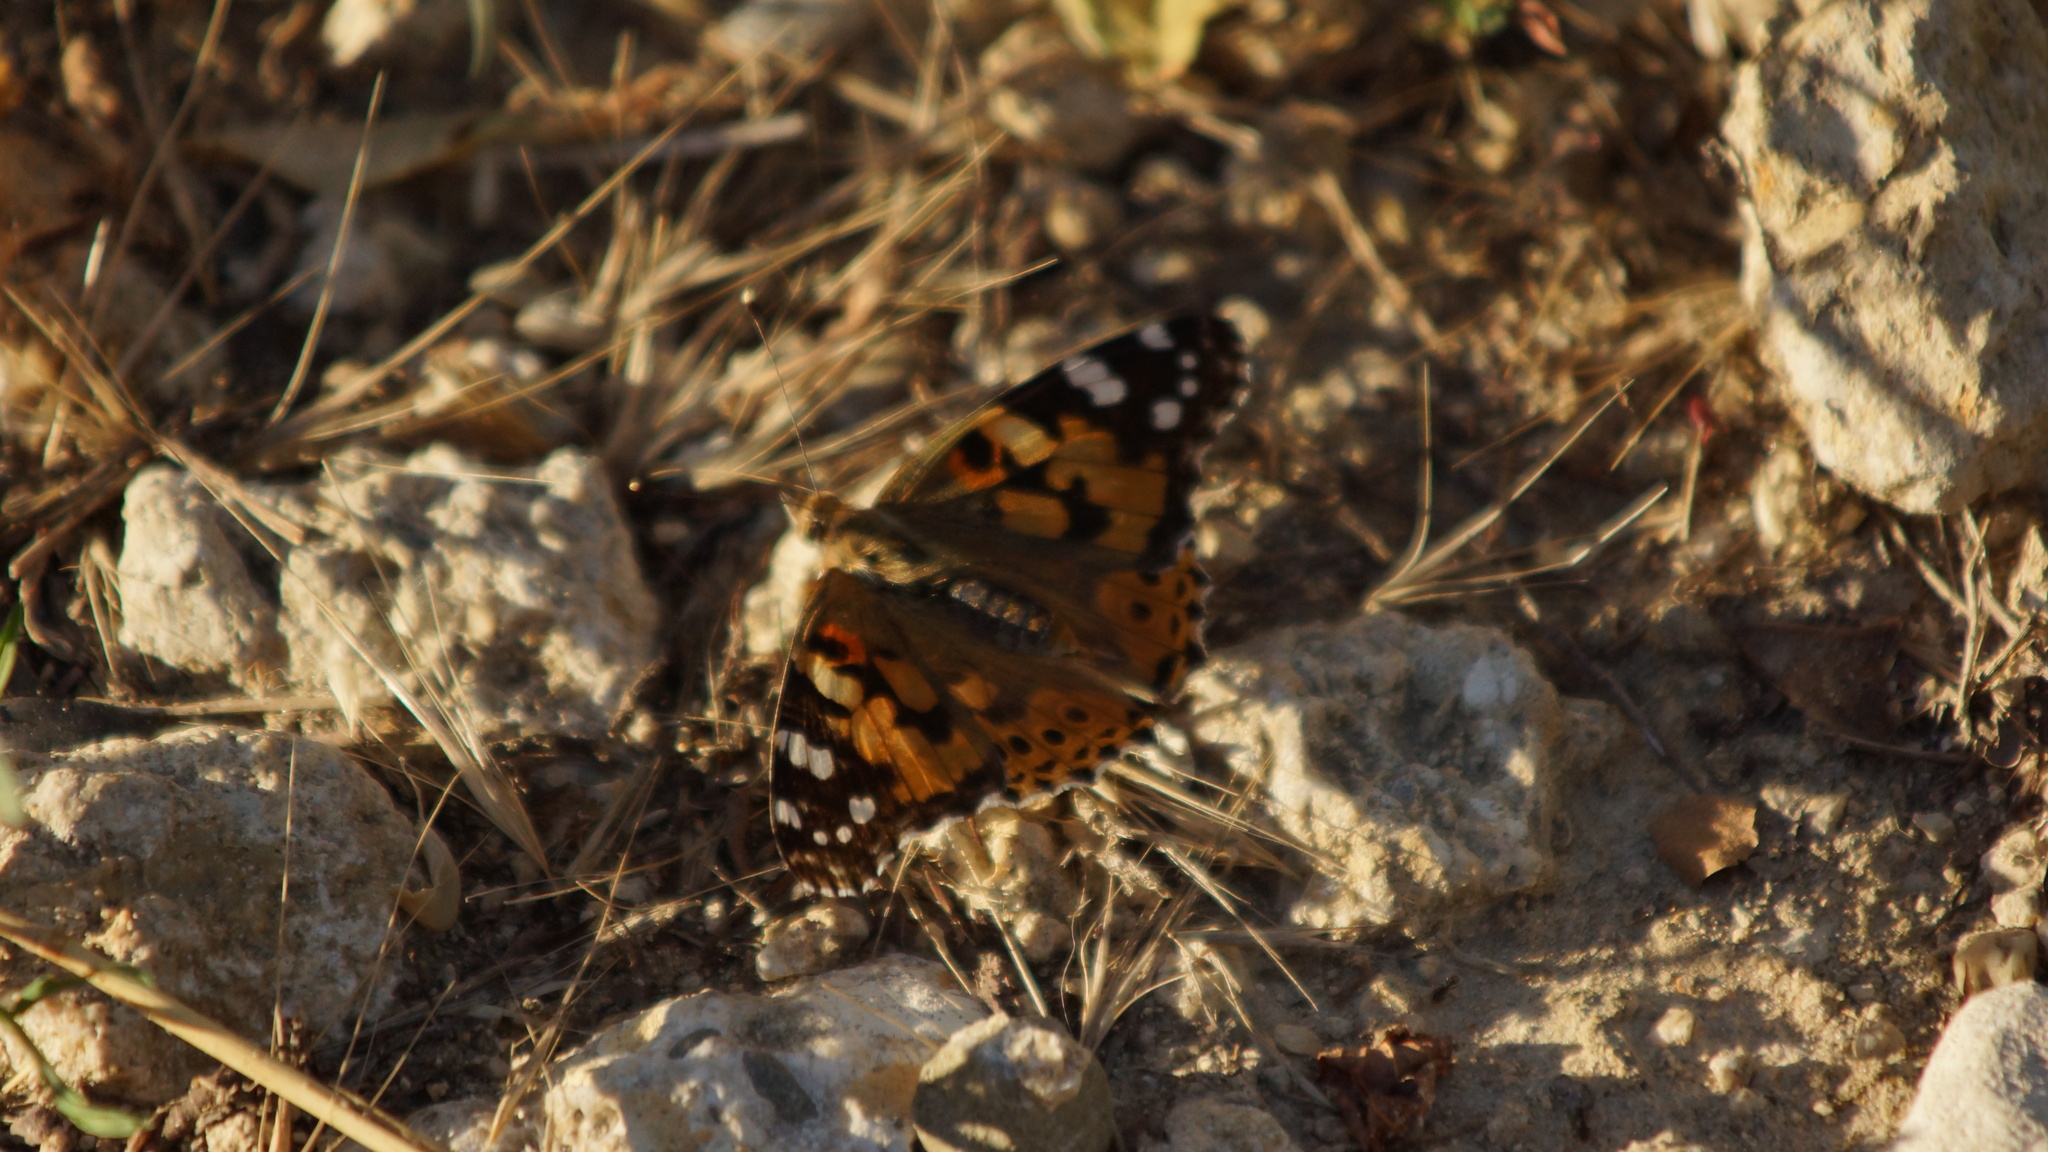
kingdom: Animalia
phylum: Arthropoda
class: Insecta
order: Lepidoptera
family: Nymphalidae
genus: Vanessa
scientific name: Vanessa cardui
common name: Painted lady
